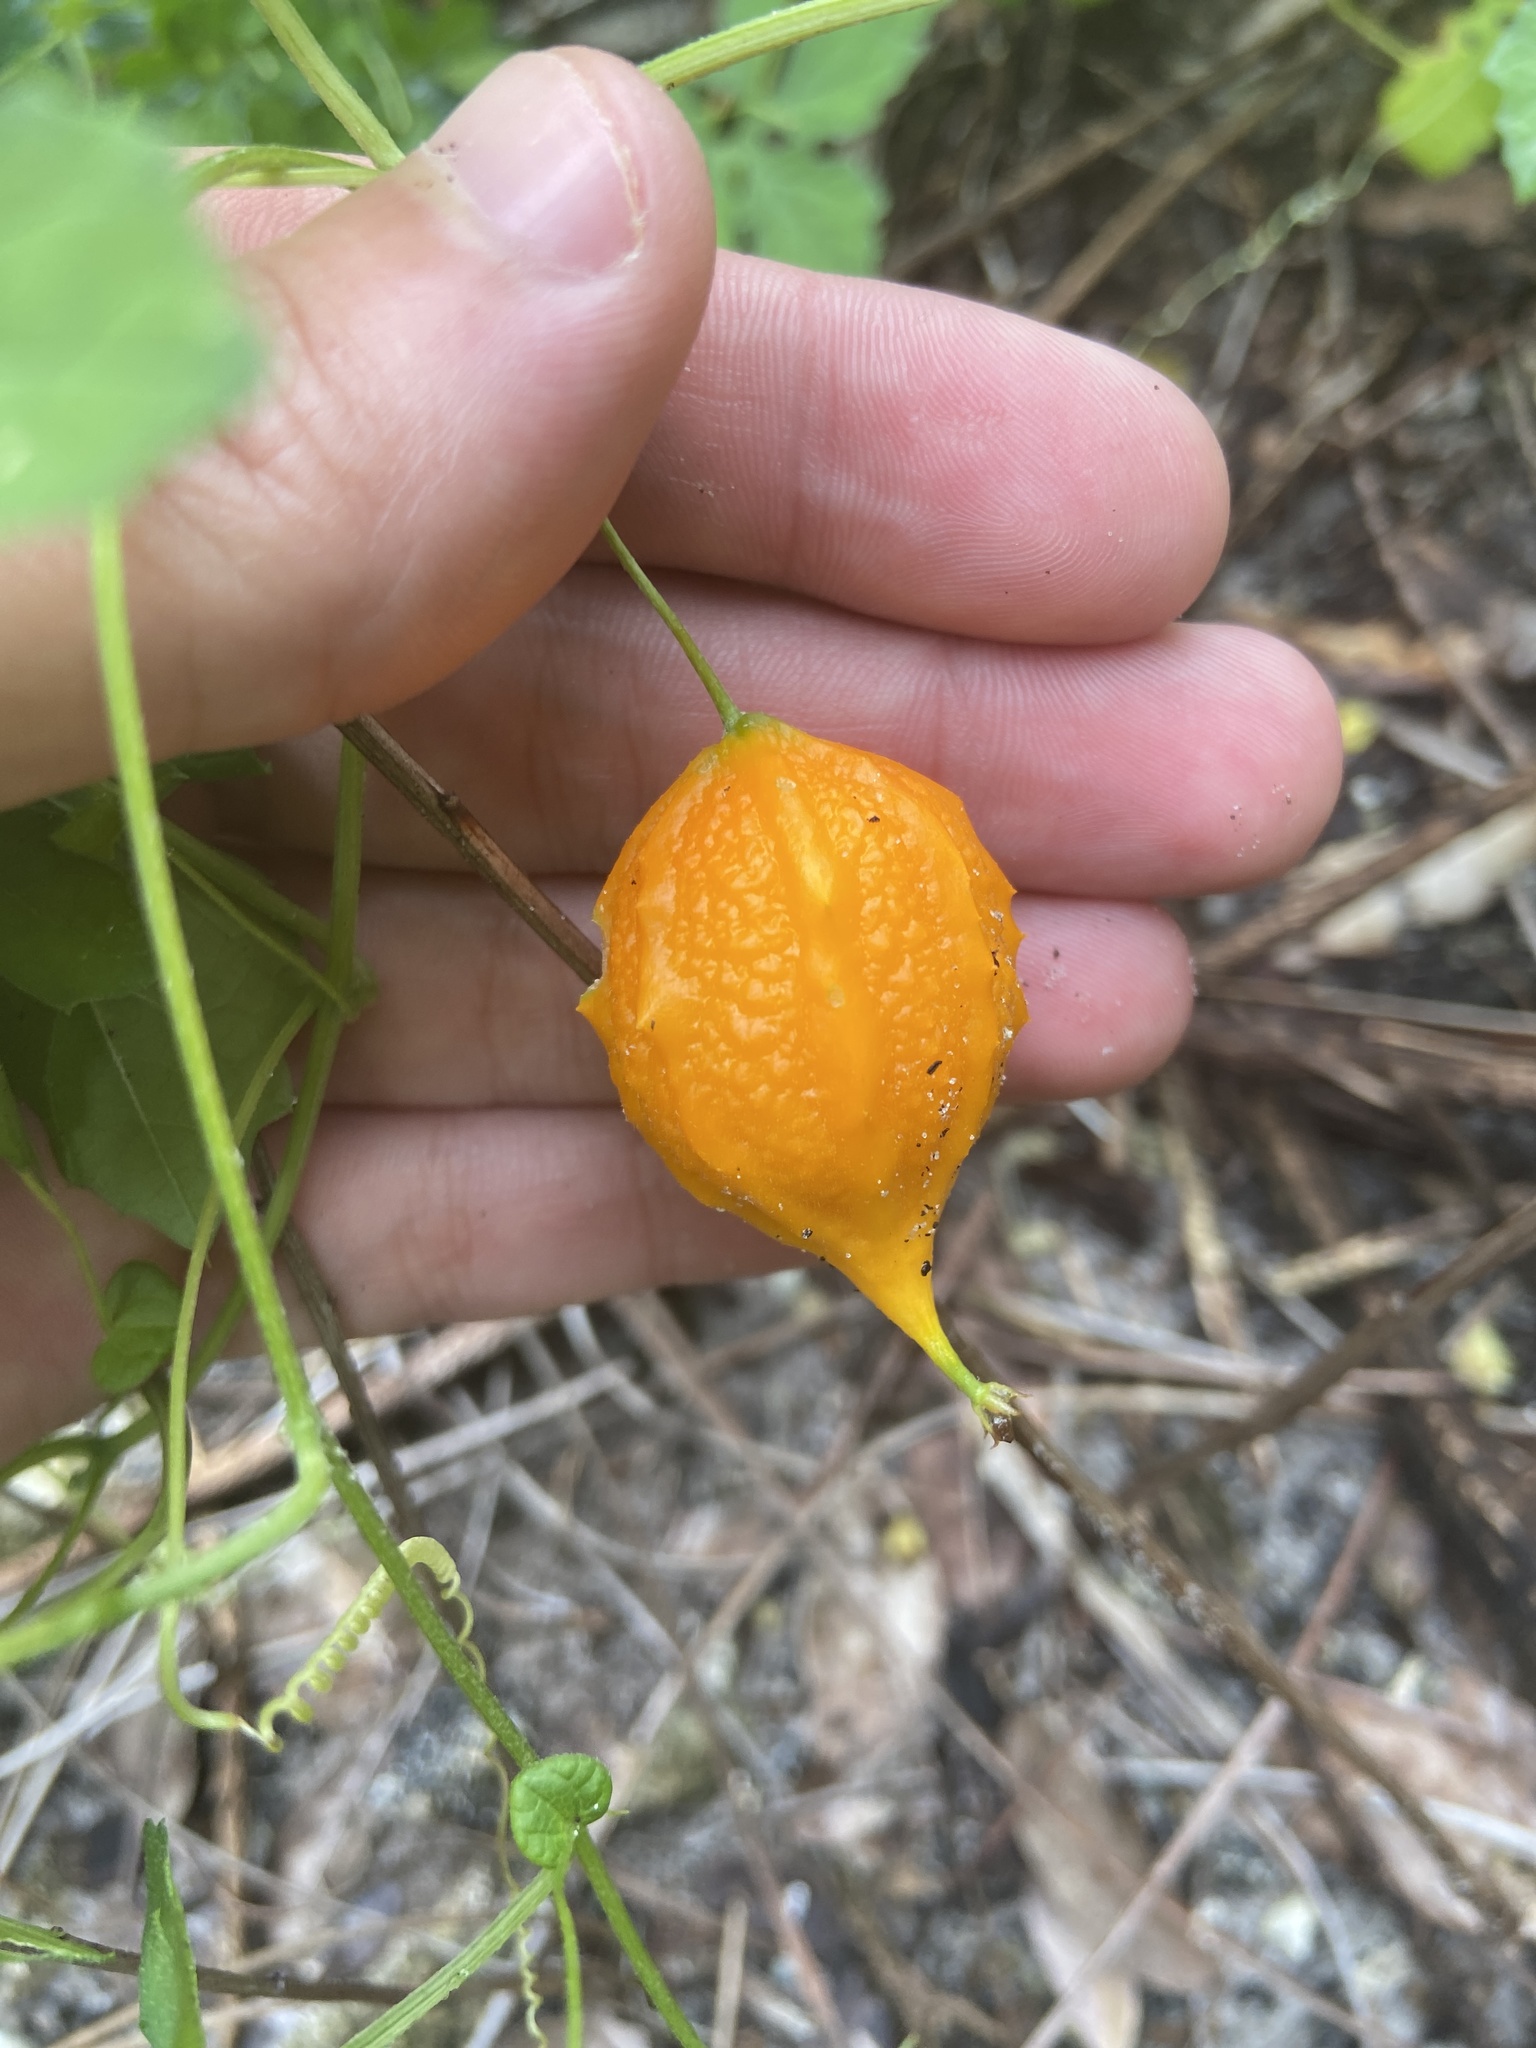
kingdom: Plantae
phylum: Tracheophyta
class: Magnoliopsida
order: Cucurbitales
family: Cucurbitaceae
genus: Momordica
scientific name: Momordica charantia
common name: Balsampear
